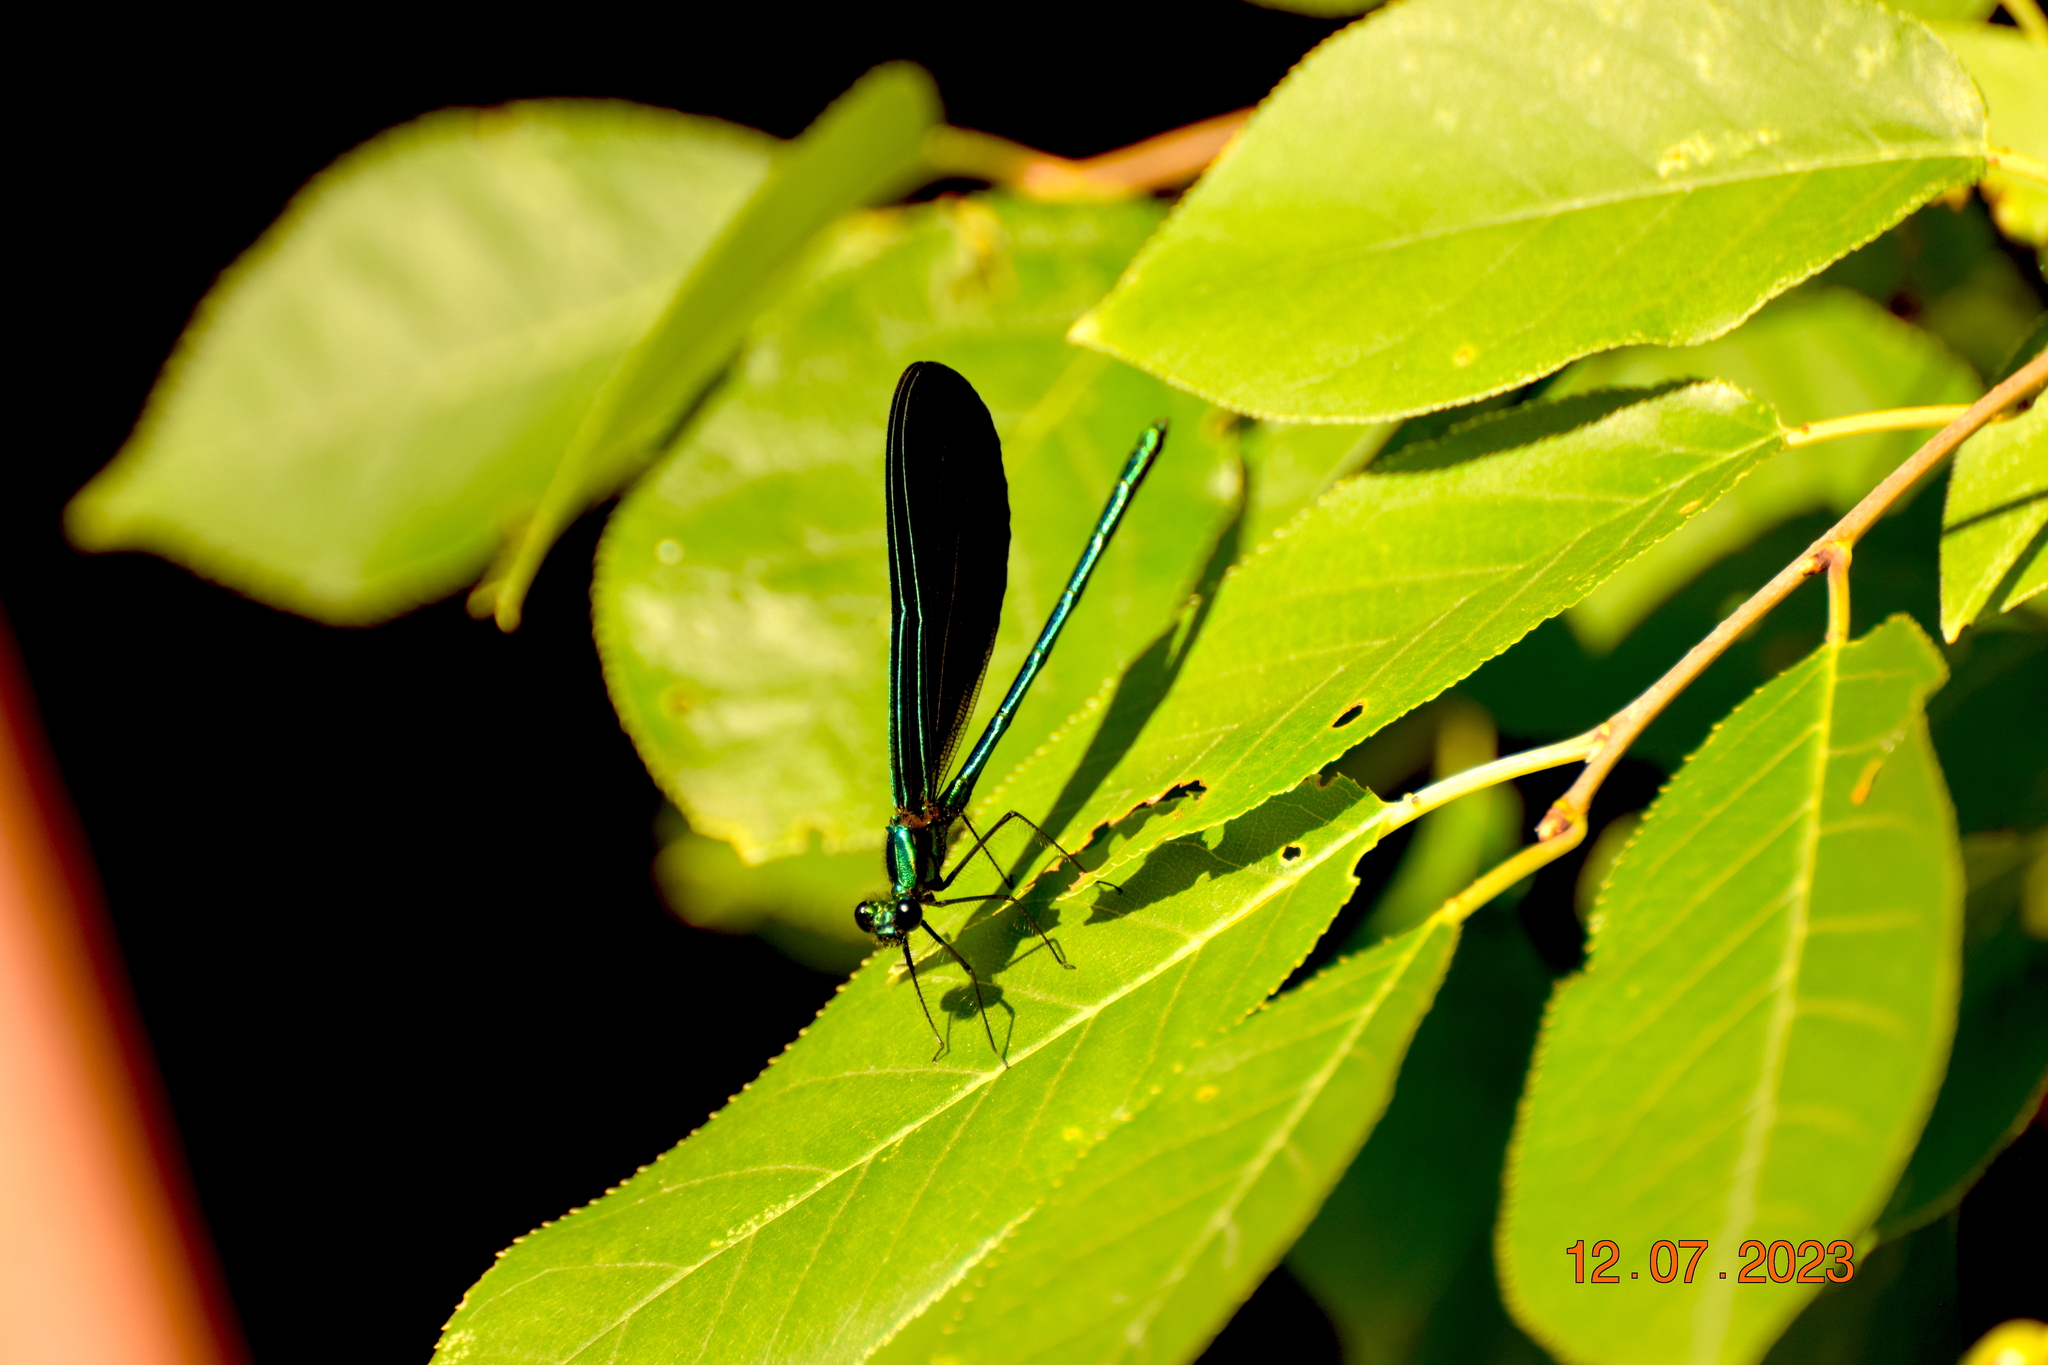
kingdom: Animalia
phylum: Arthropoda
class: Insecta
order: Odonata
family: Calopterygidae
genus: Calopteryx
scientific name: Calopteryx maculata
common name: Ebony jewelwing
